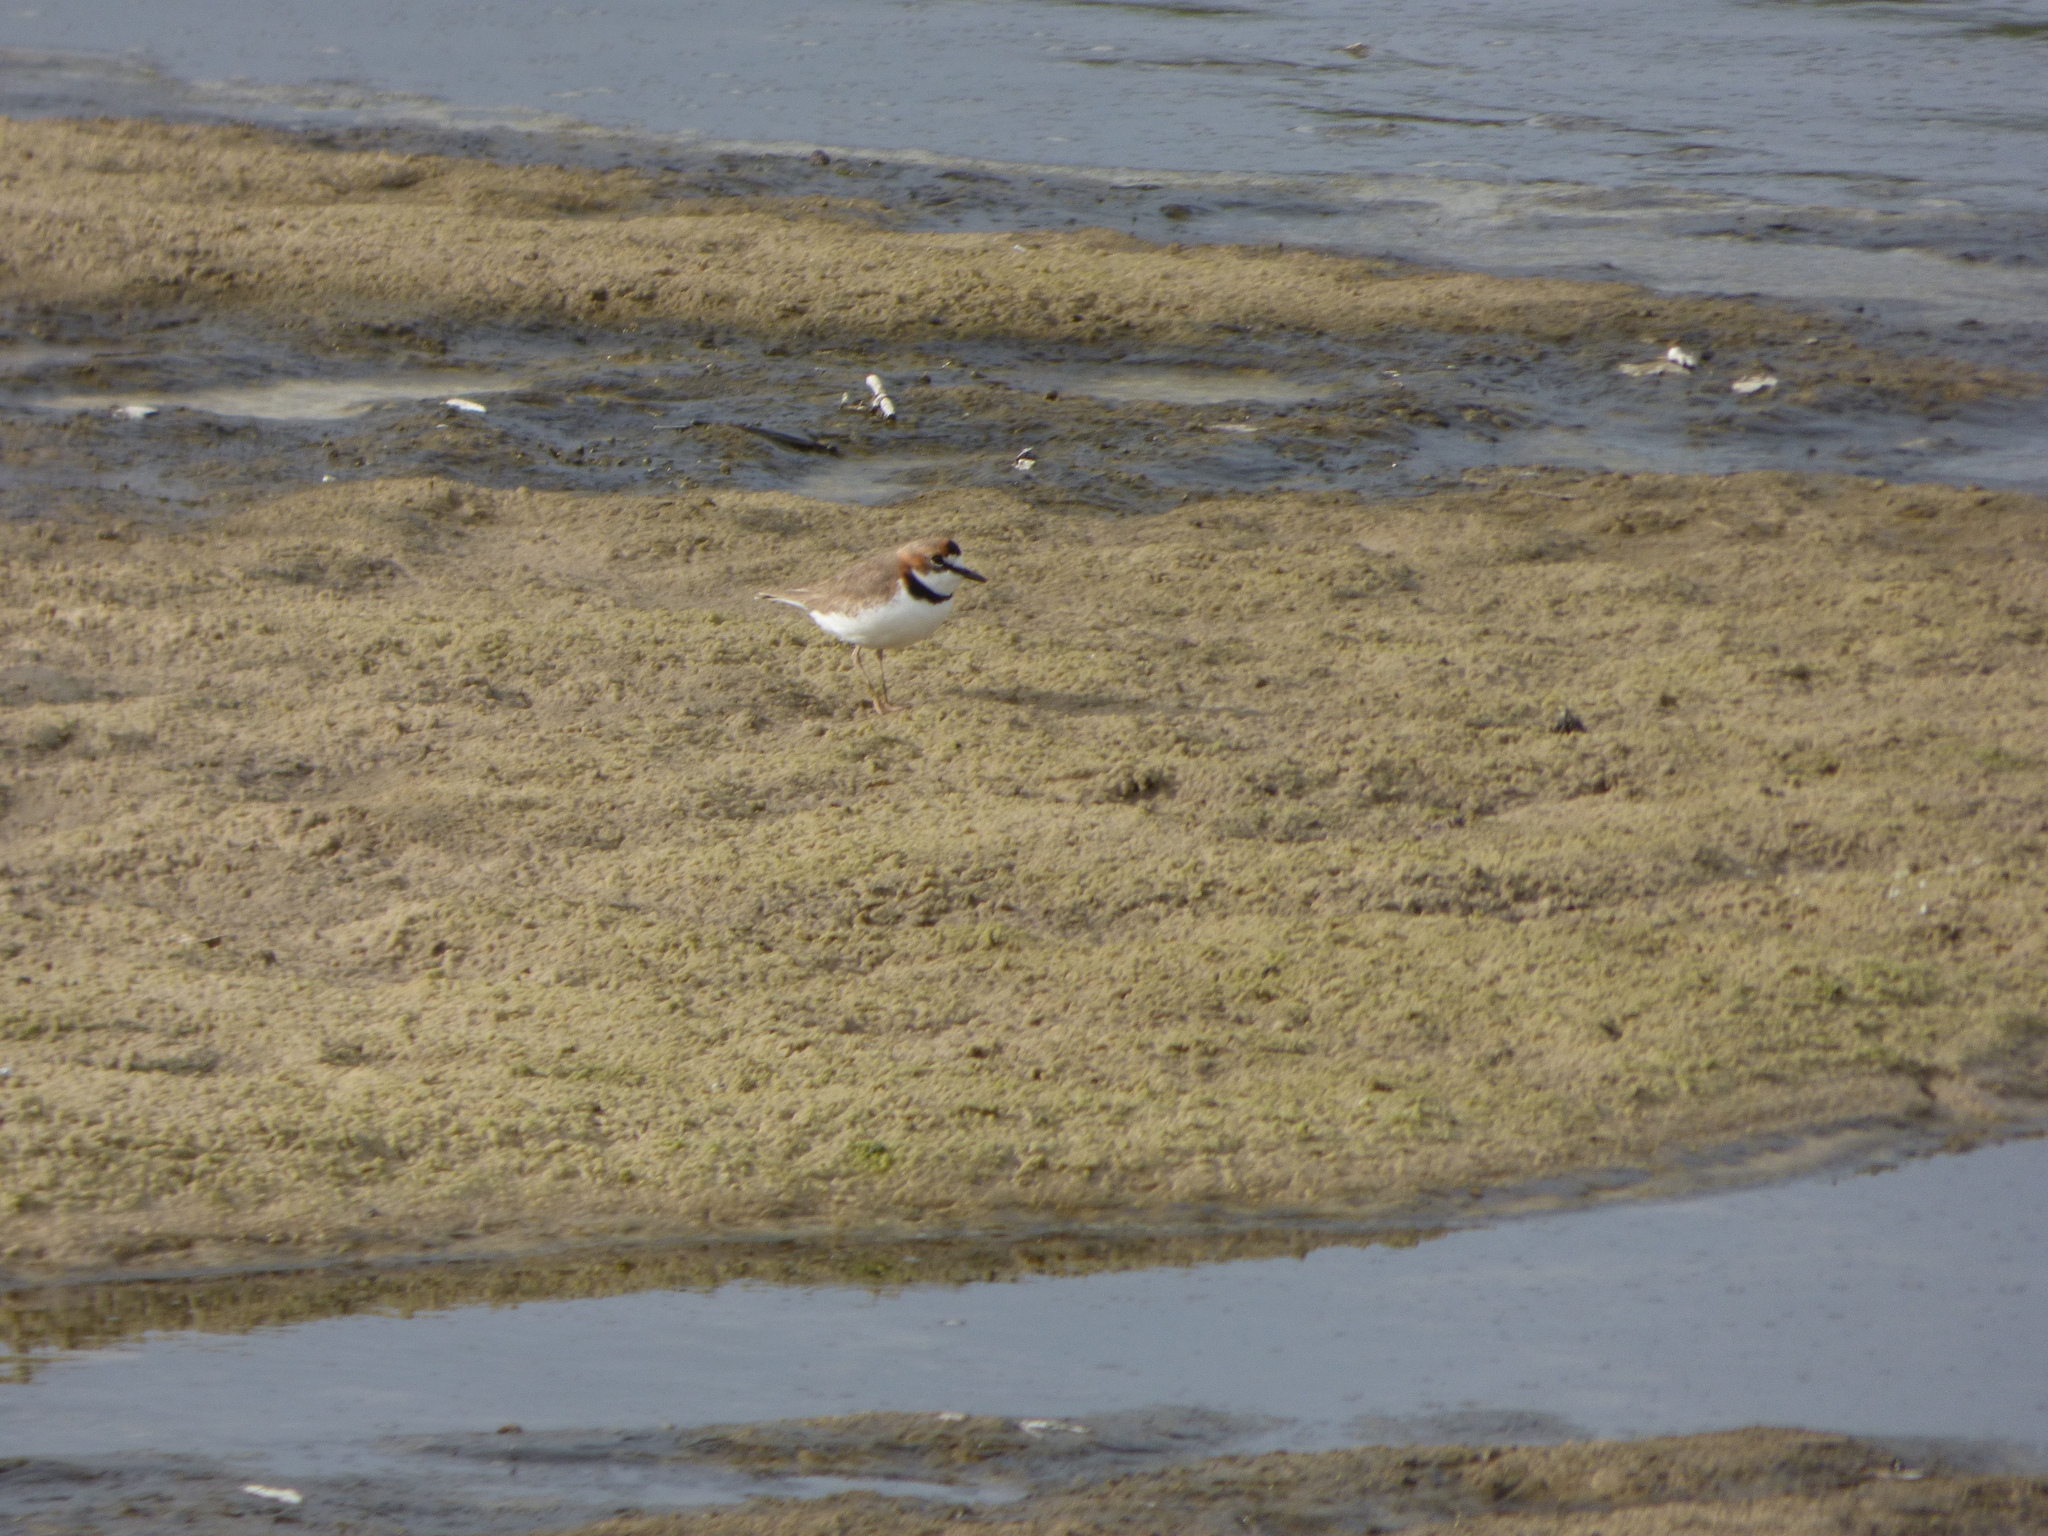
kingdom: Animalia
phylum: Chordata
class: Aves
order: Charadriiformes
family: Charadriidae
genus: Anarhynchus
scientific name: Anarhynchus
